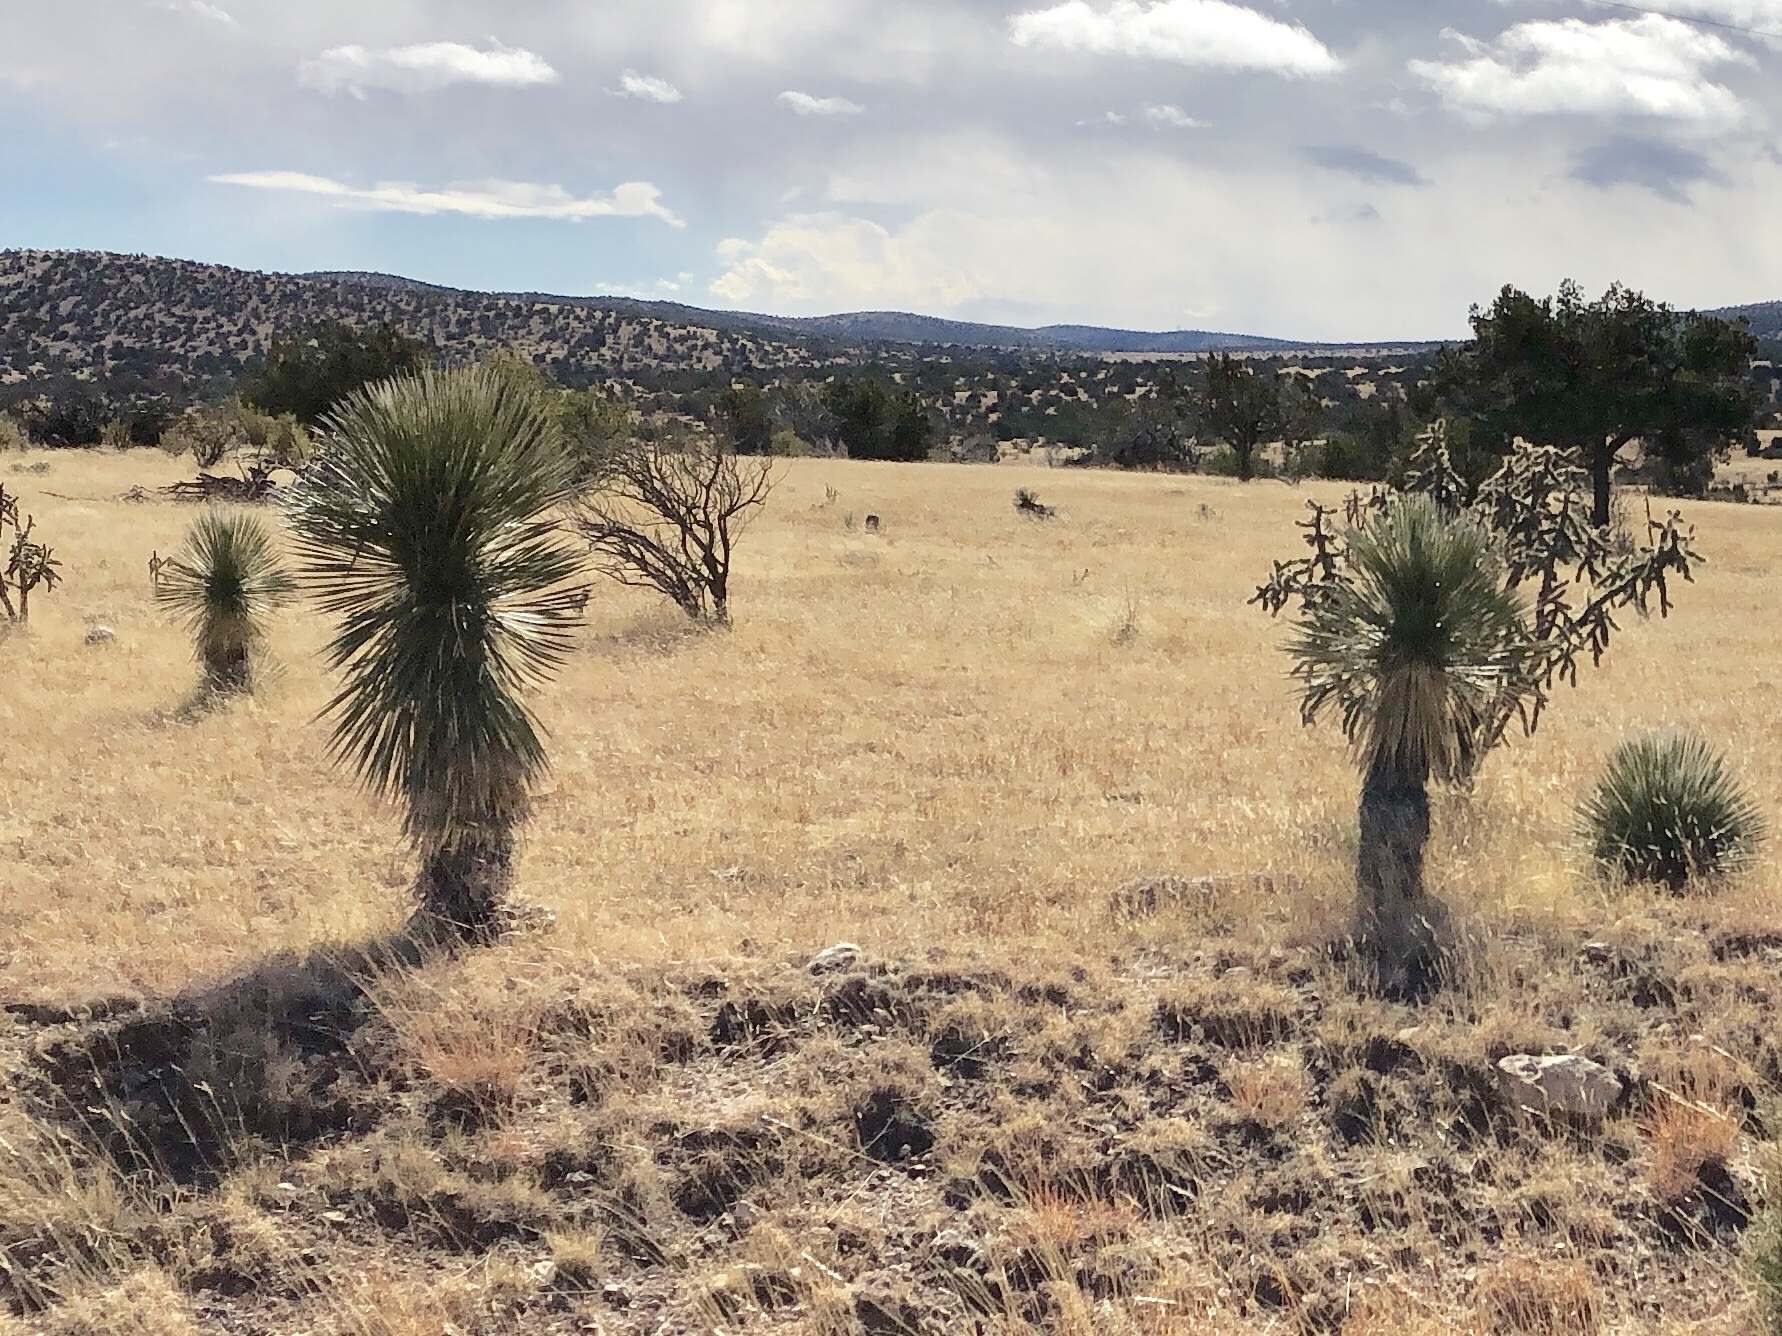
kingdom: Plantae
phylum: Tracheophyta
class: Liliopsida
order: Asparagales
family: Asparagaceae
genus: Yucca
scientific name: Yucca elata
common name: Palmella
